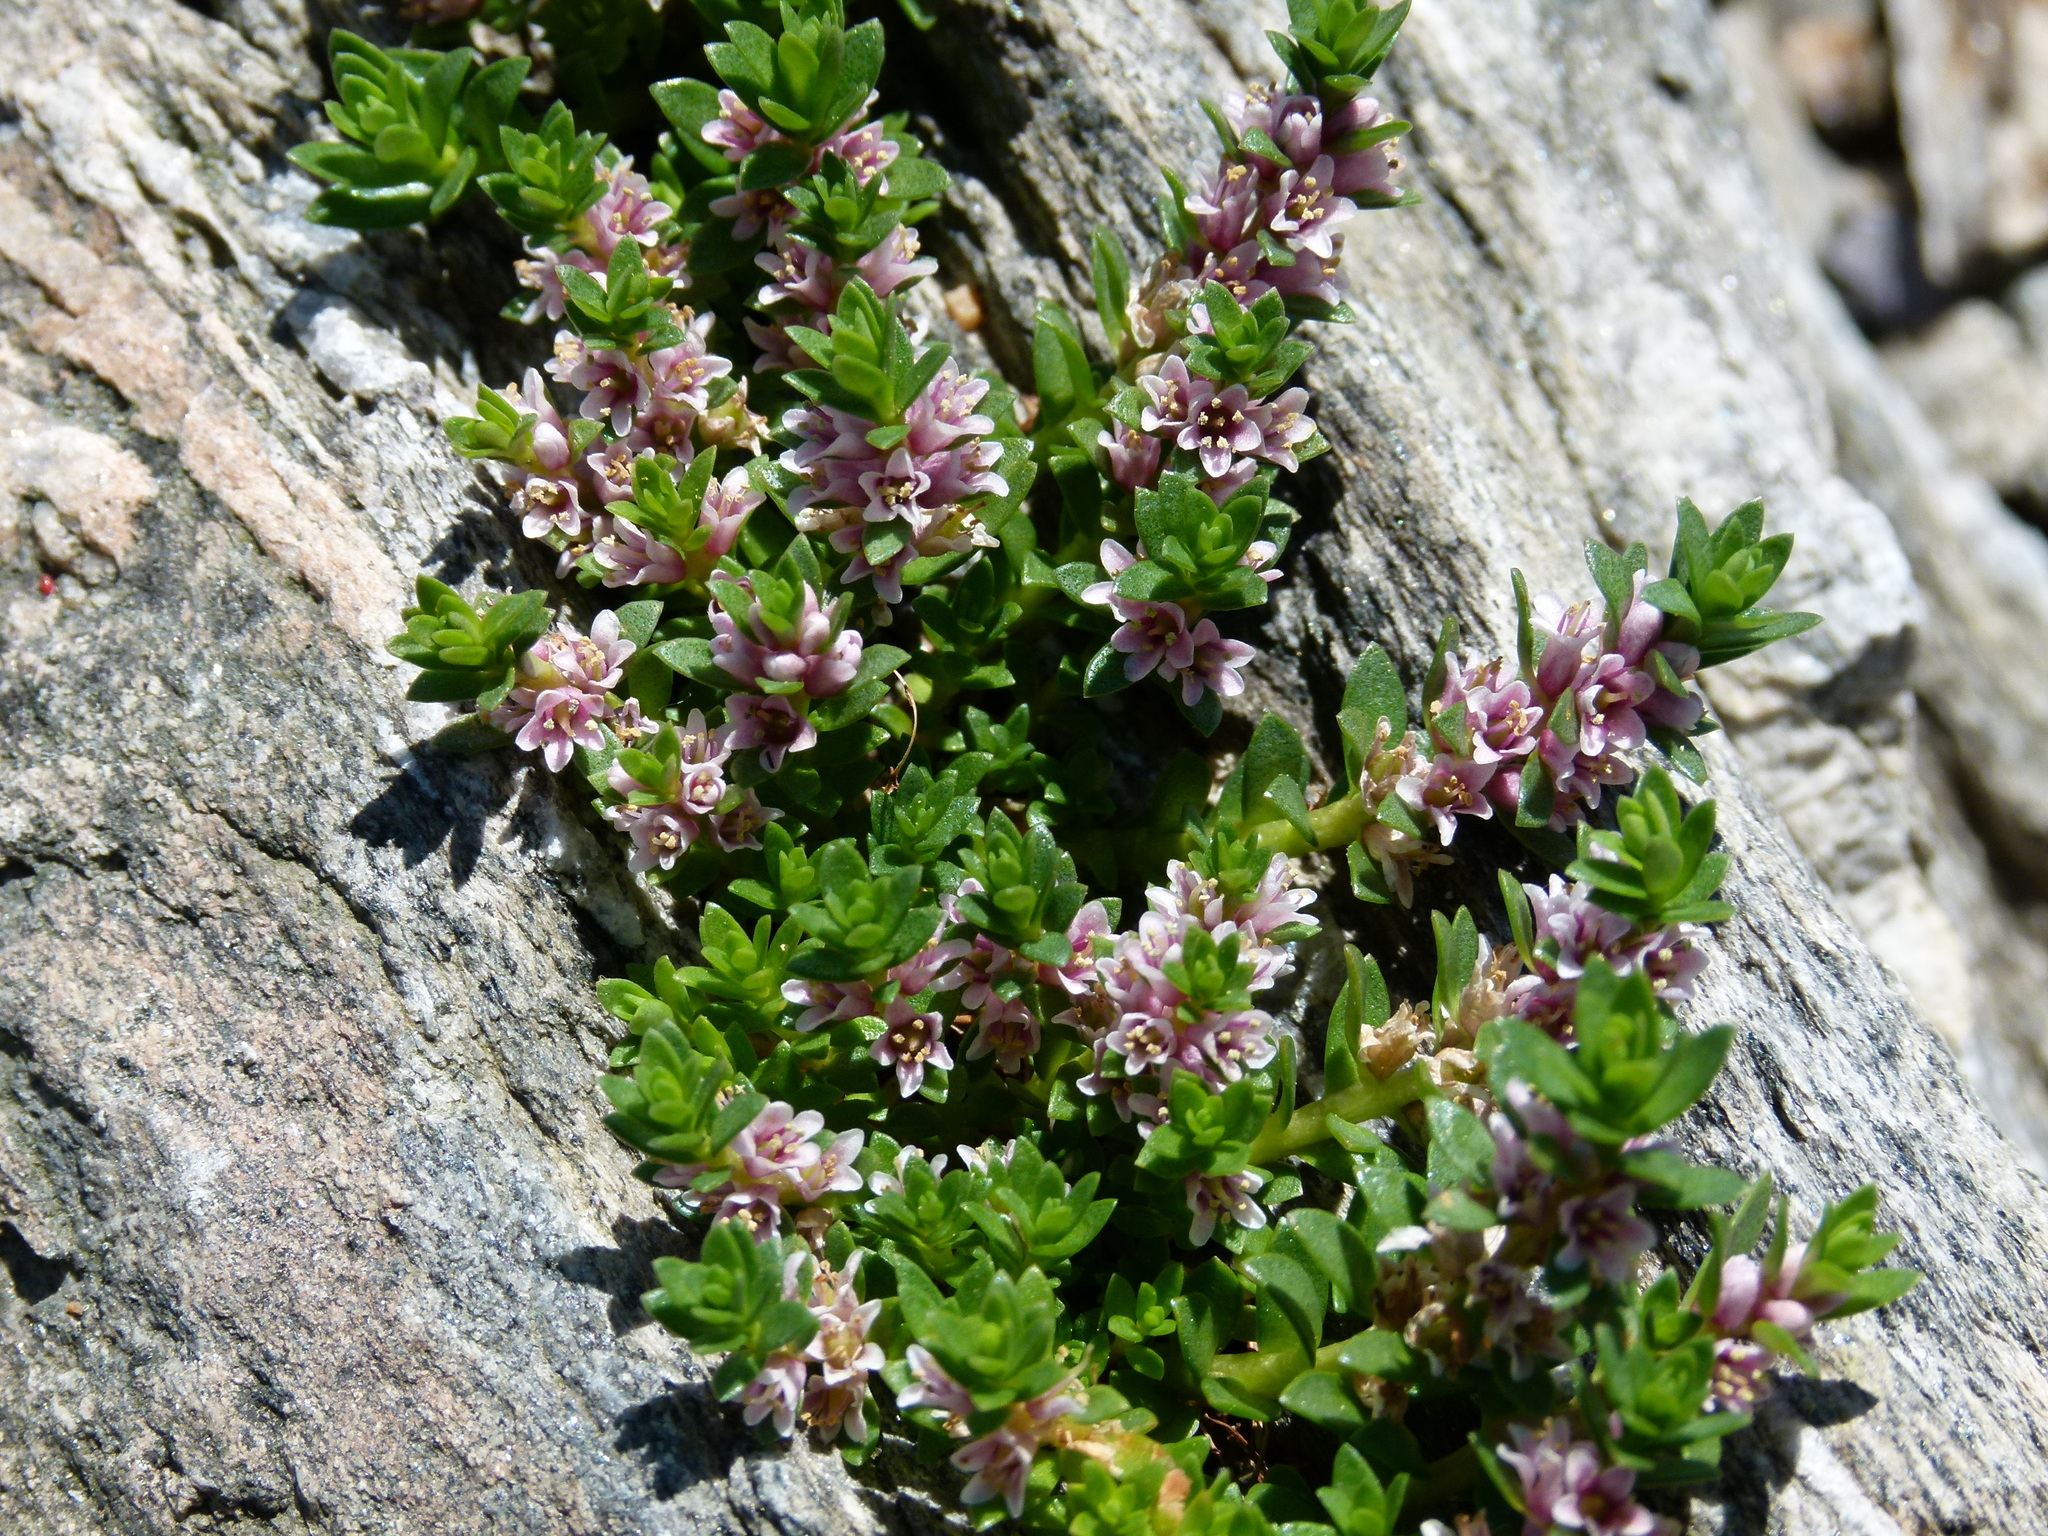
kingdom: Plantae
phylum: Tracheophyta
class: Magnoliopsida
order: Ericales
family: Primulaceae
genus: Lysimachia
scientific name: Lysimachia maritima
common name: Sea milkwort
